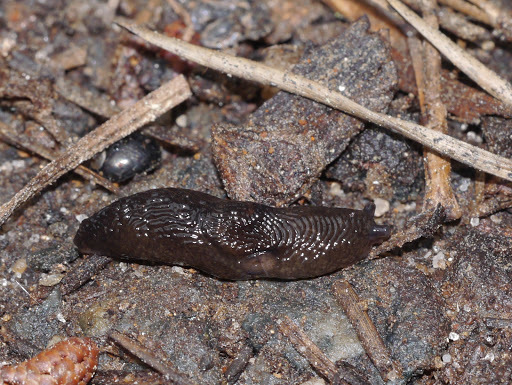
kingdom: Animalia
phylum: Mollusca
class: Gastropoda
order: Stylommatophora
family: Agriolimacidae
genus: Deroceras
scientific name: Deroceras laeve
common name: Marsh slug
